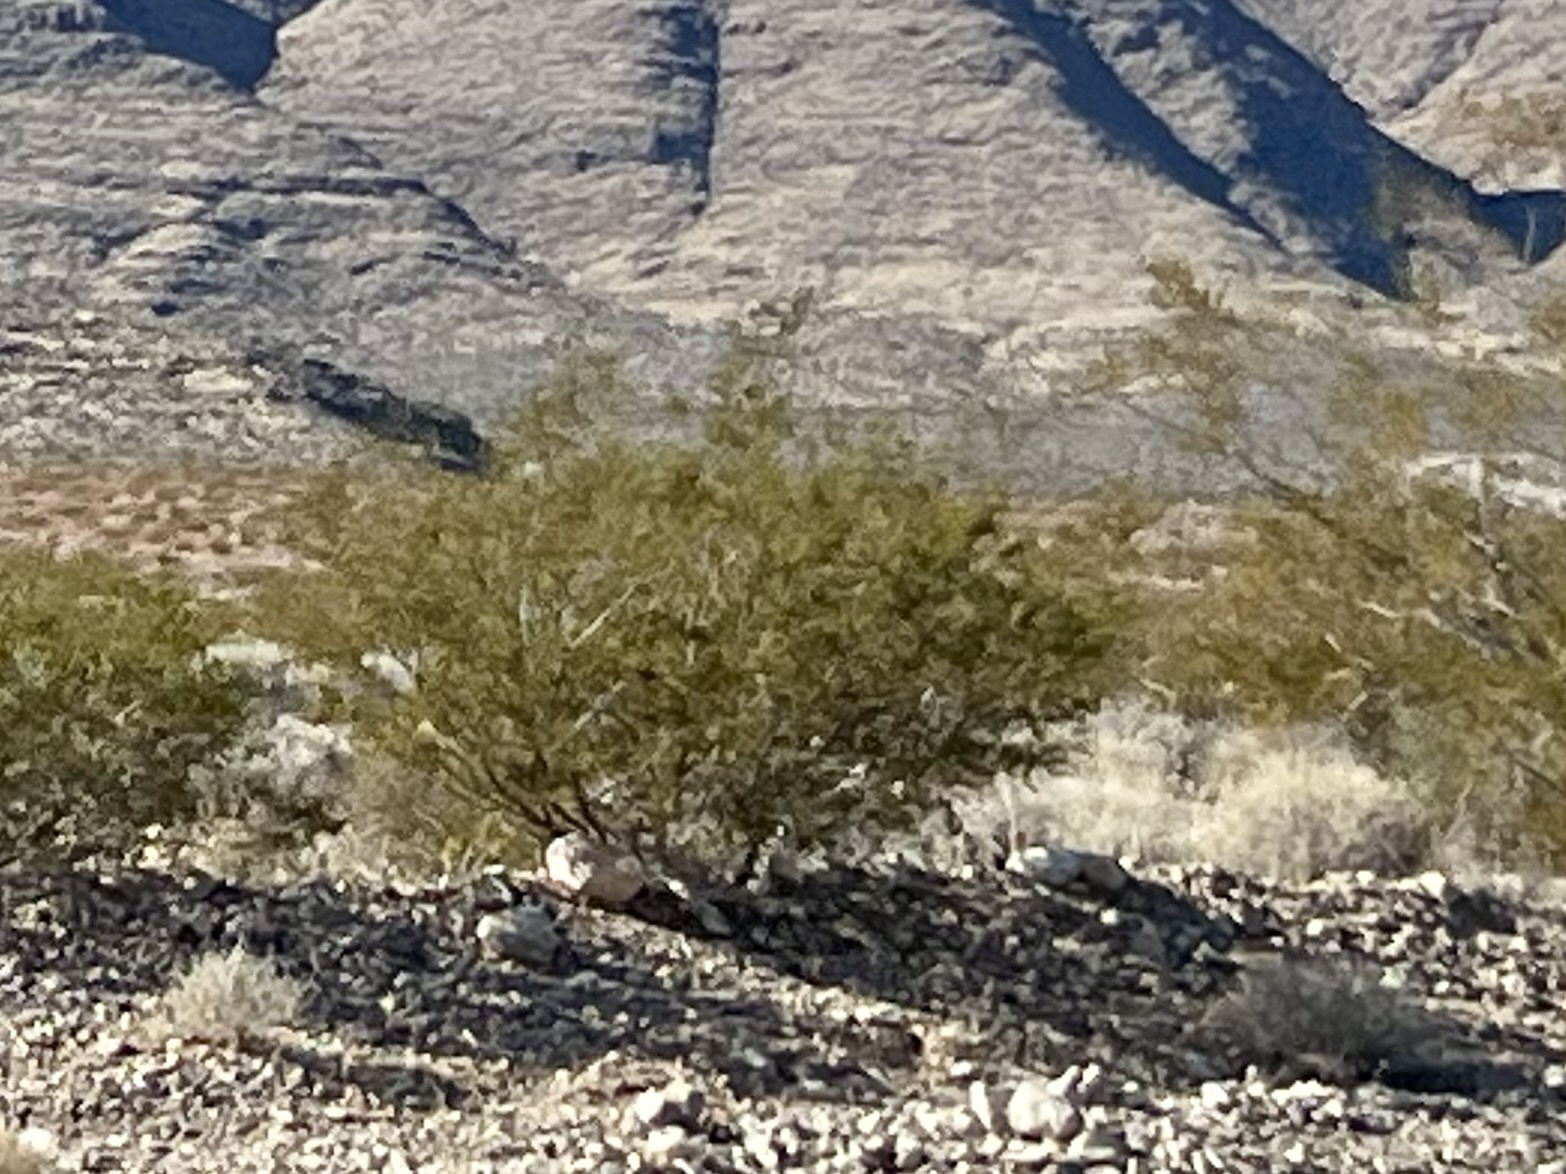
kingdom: Plantae
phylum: Tracheophyta
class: Magnoliopsida
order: Zygophyllales
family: Zygophyllaceae
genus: Larrea
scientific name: Larrea tridentata
